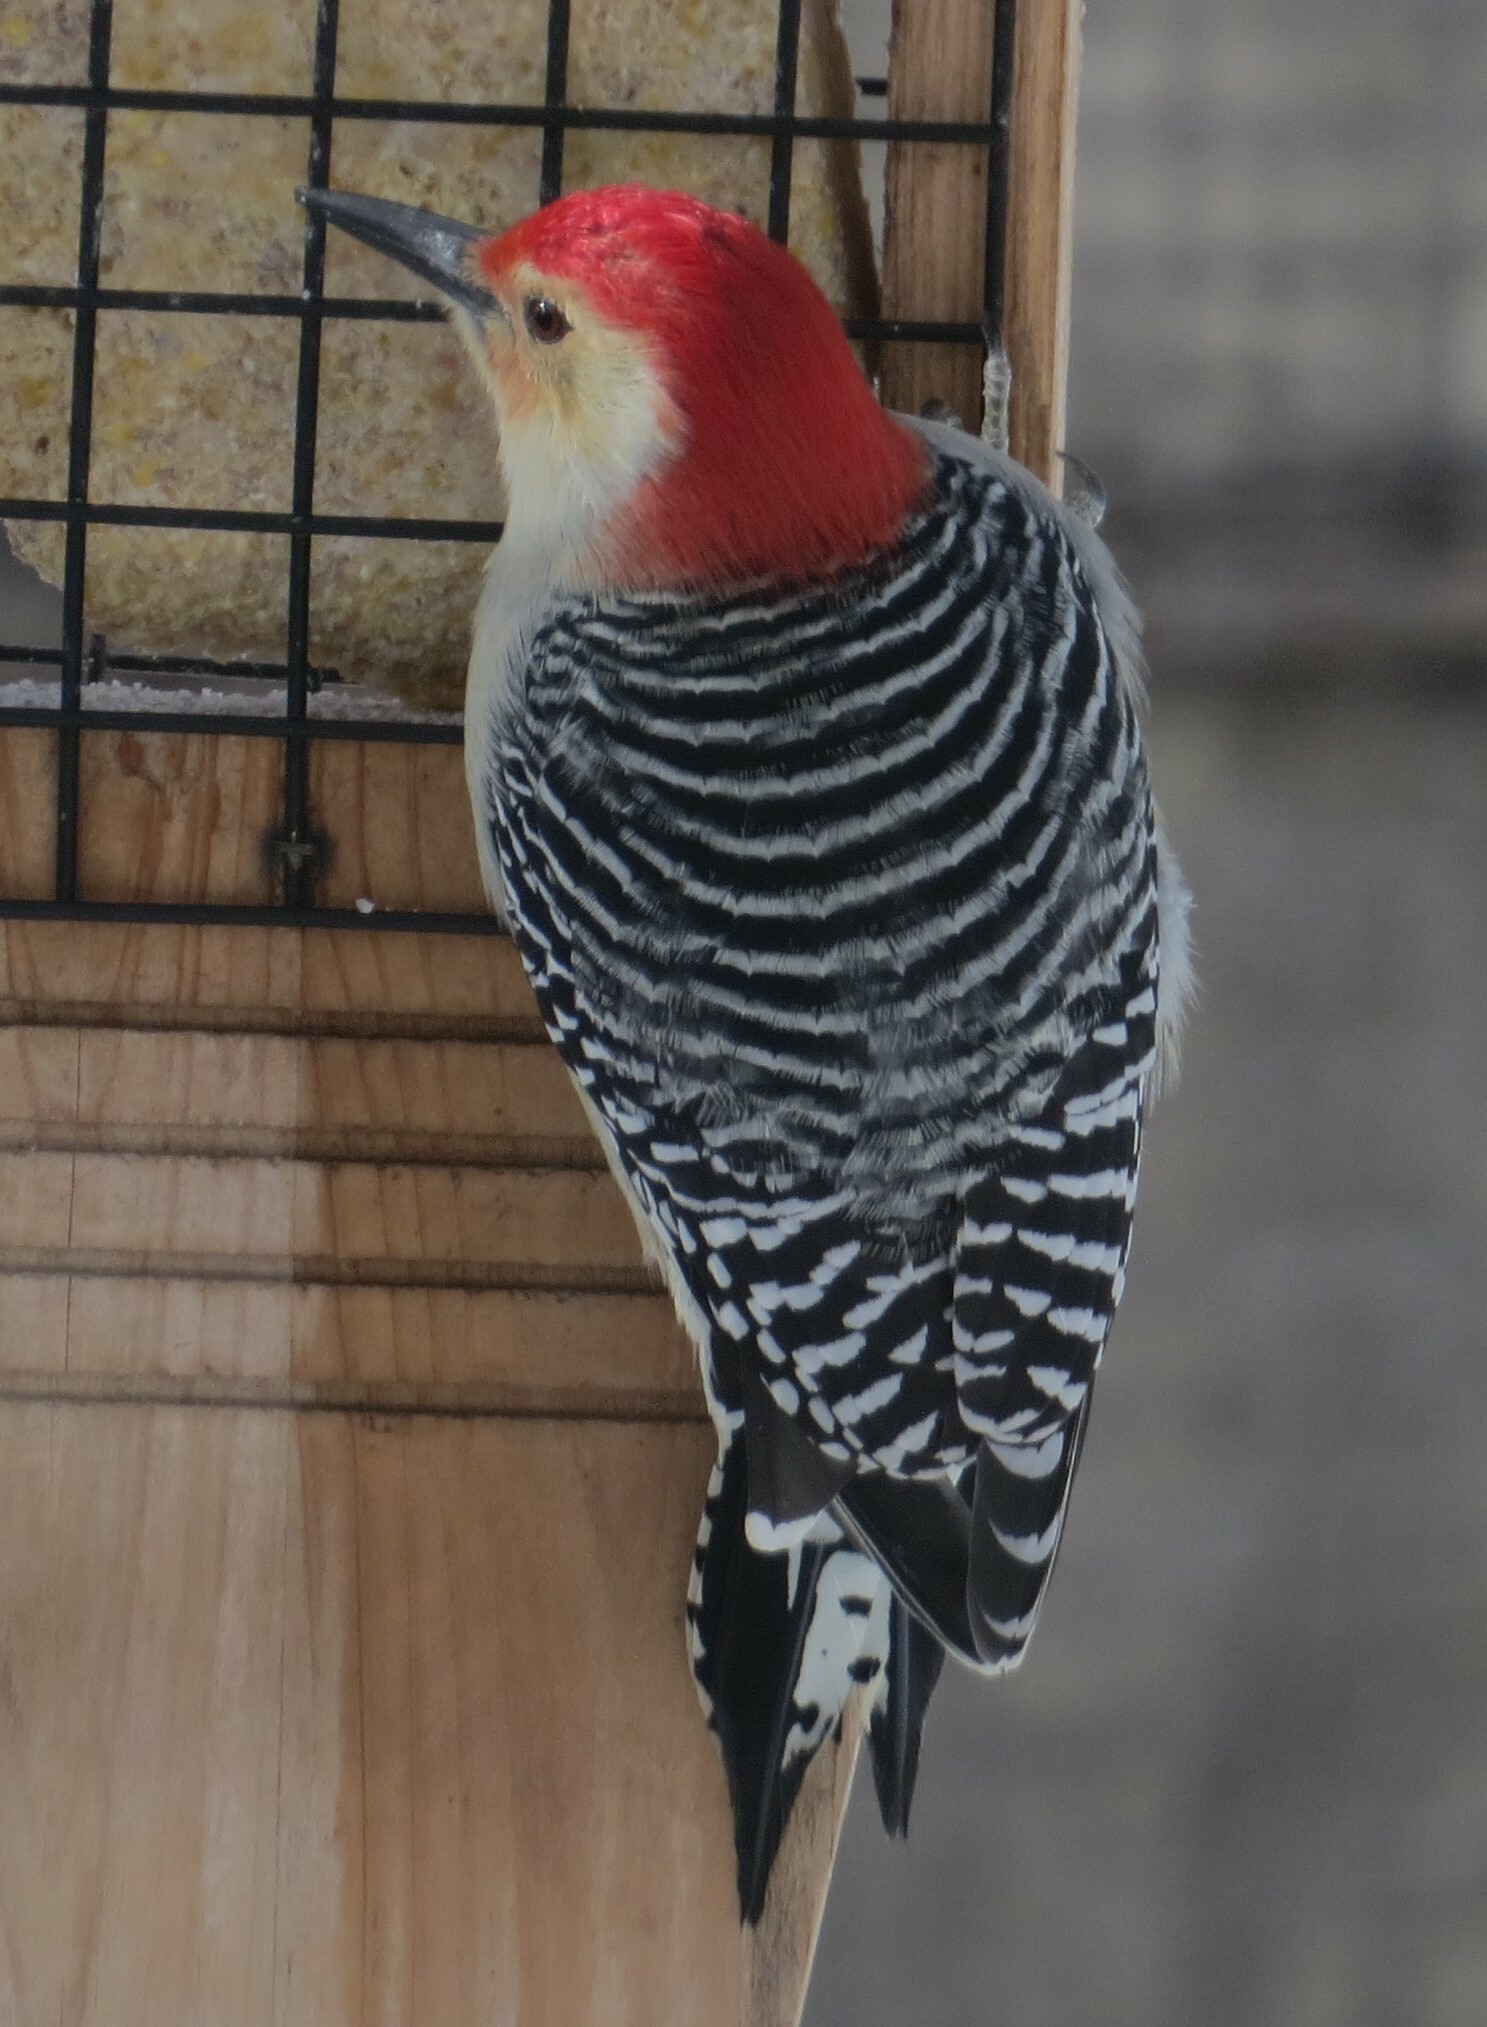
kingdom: Animalia
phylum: Chordata
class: Aves
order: Piciformes
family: Picidae
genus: Melanerpes
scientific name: Melanerpes carolinus
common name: Red-bellied woodpecker
